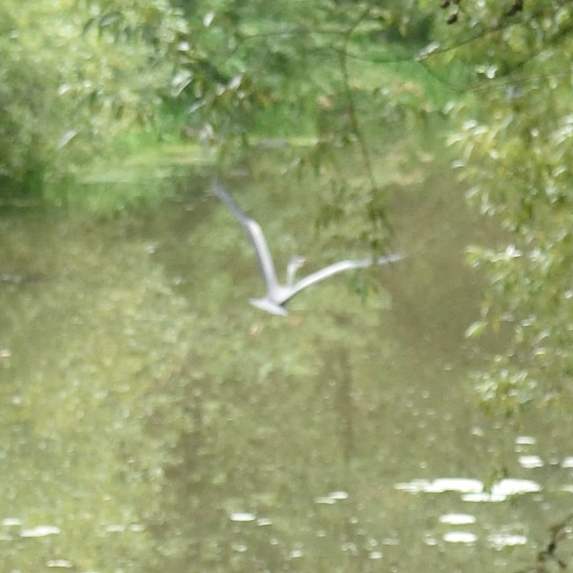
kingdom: Animalia
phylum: Chordata
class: Aves
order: Pelecaniformes
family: Ardeidae
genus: Ardea
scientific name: Ardea cinerea
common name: Grey heron
